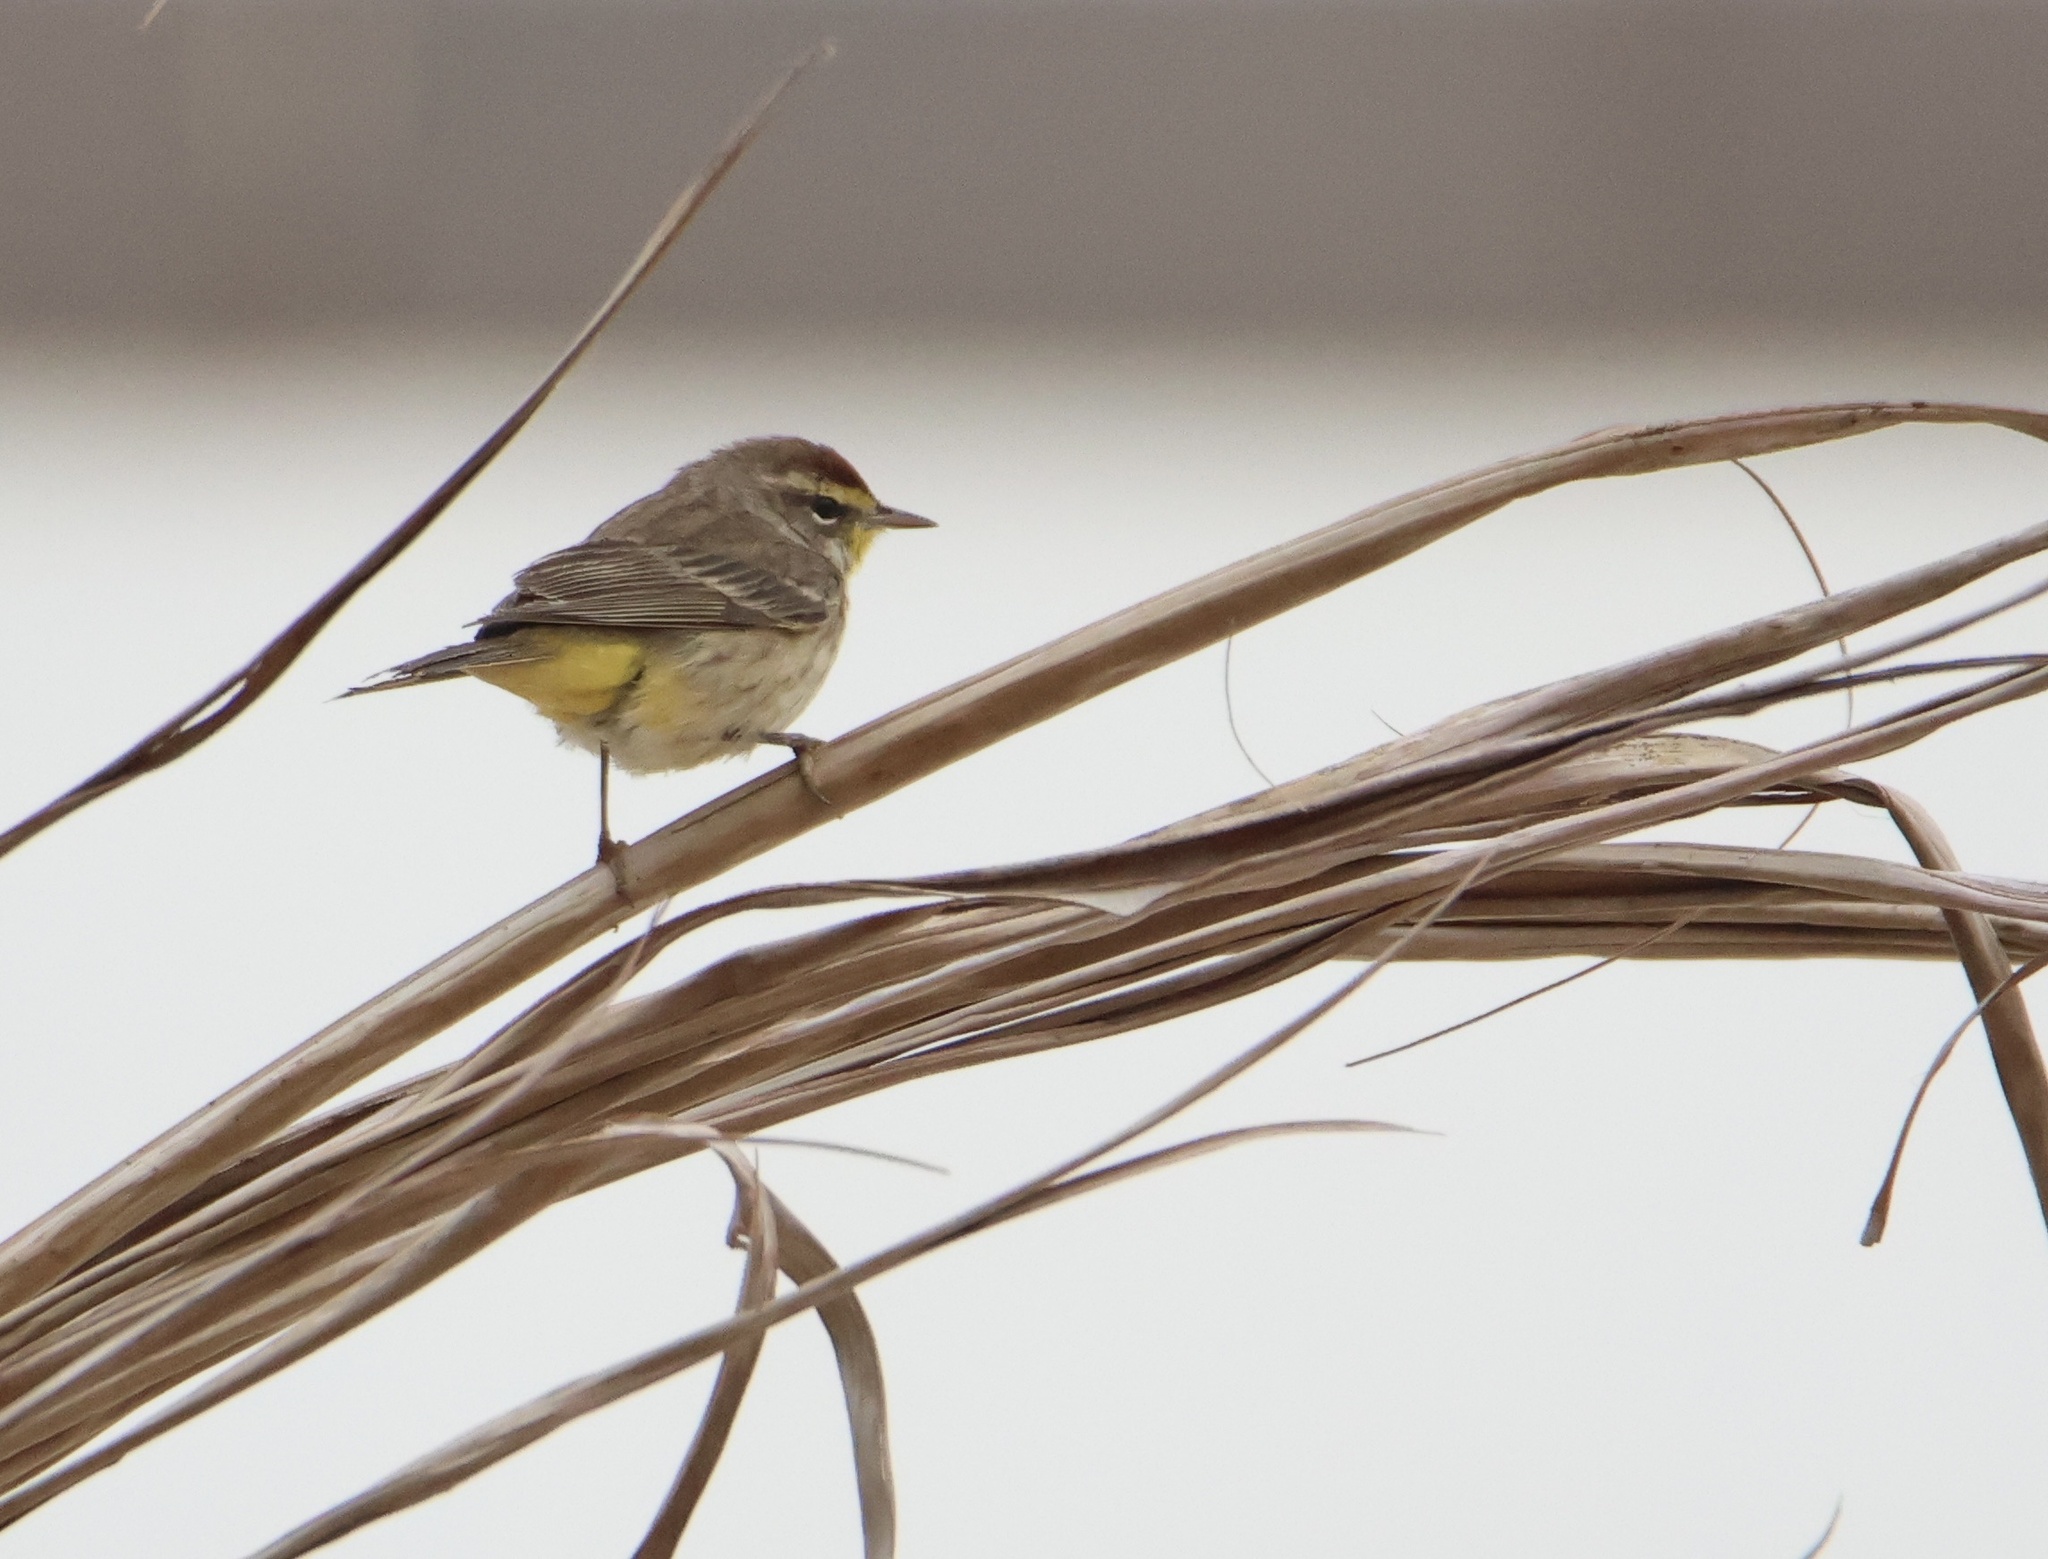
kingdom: Animalia
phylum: Chordata
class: Aves
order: Passeriformes
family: Parulidae
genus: Setophaga
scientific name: Setophaga palmarum
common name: Palm warbler
